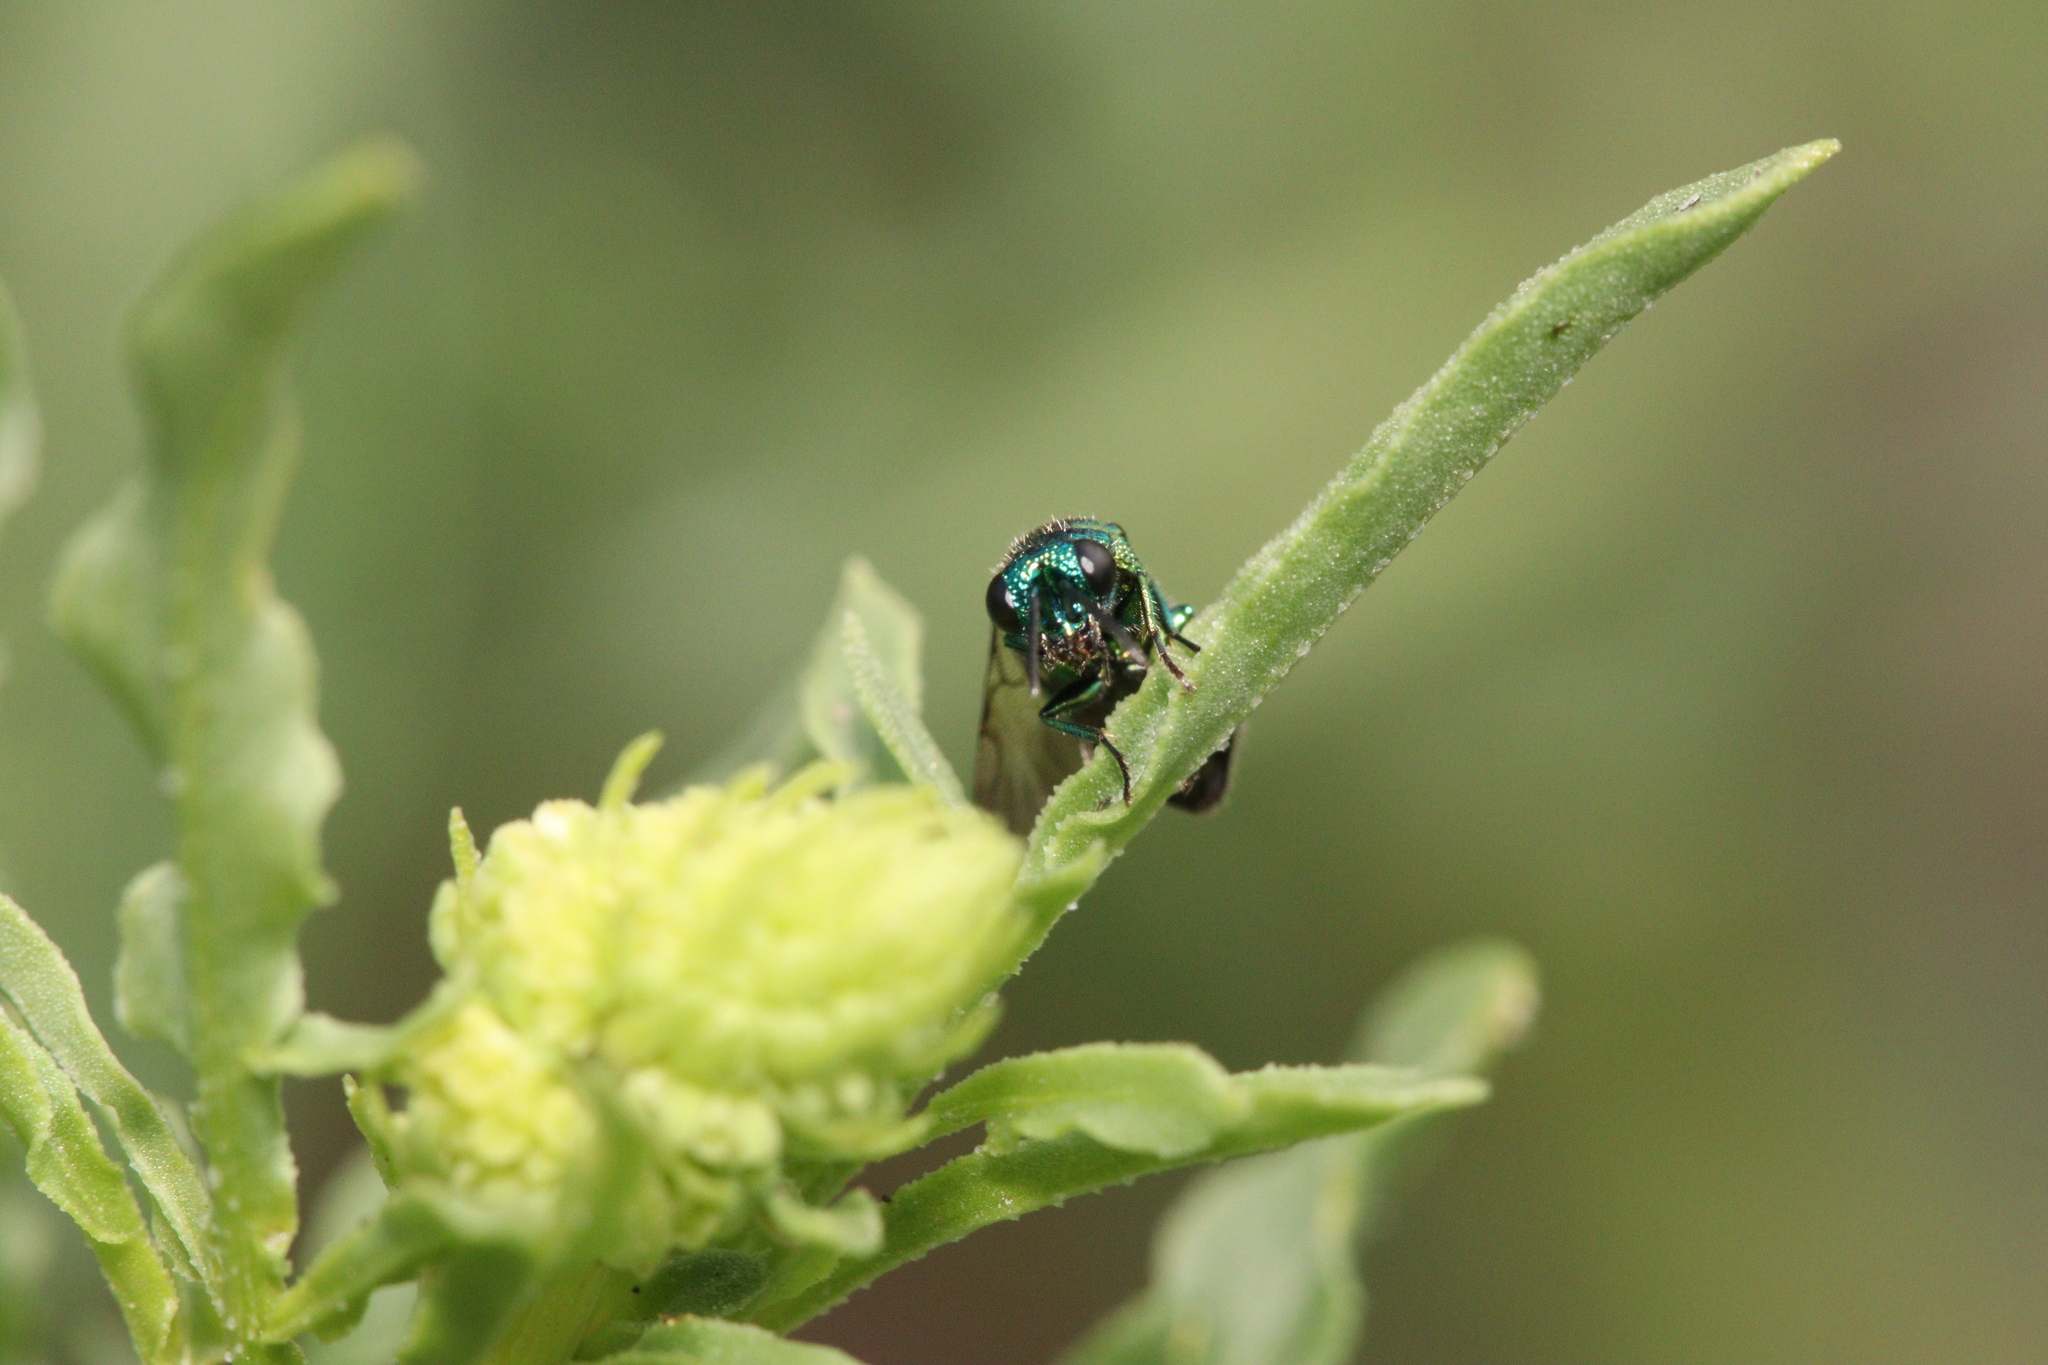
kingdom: Animalia
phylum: Arthropoda
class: Insecta
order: Hymenoptera
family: Chrysididae
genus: Pseudomalus
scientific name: Pseudomalus pusillus
